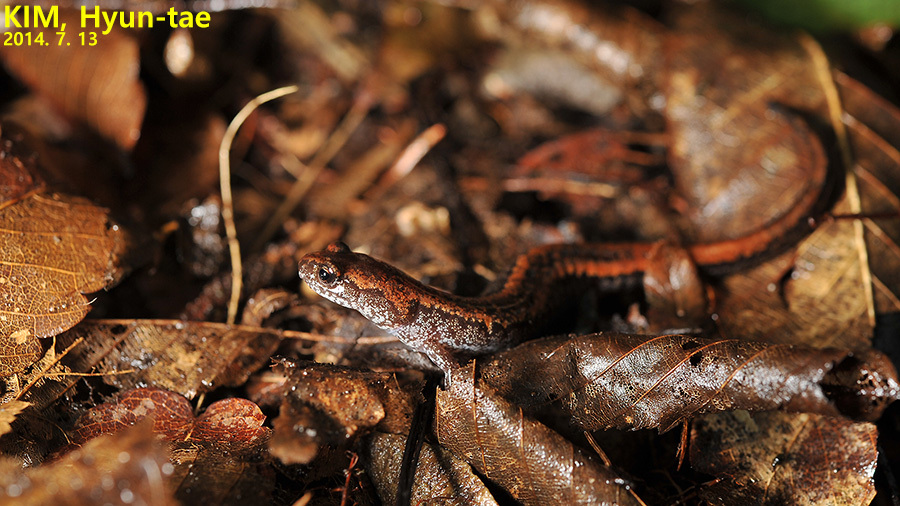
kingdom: Animalia
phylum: Chordata
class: Amphibia
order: Caudata
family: Plethodontidae
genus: Karsenia
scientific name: Karsenia koreana
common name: Korean crevice salamander
